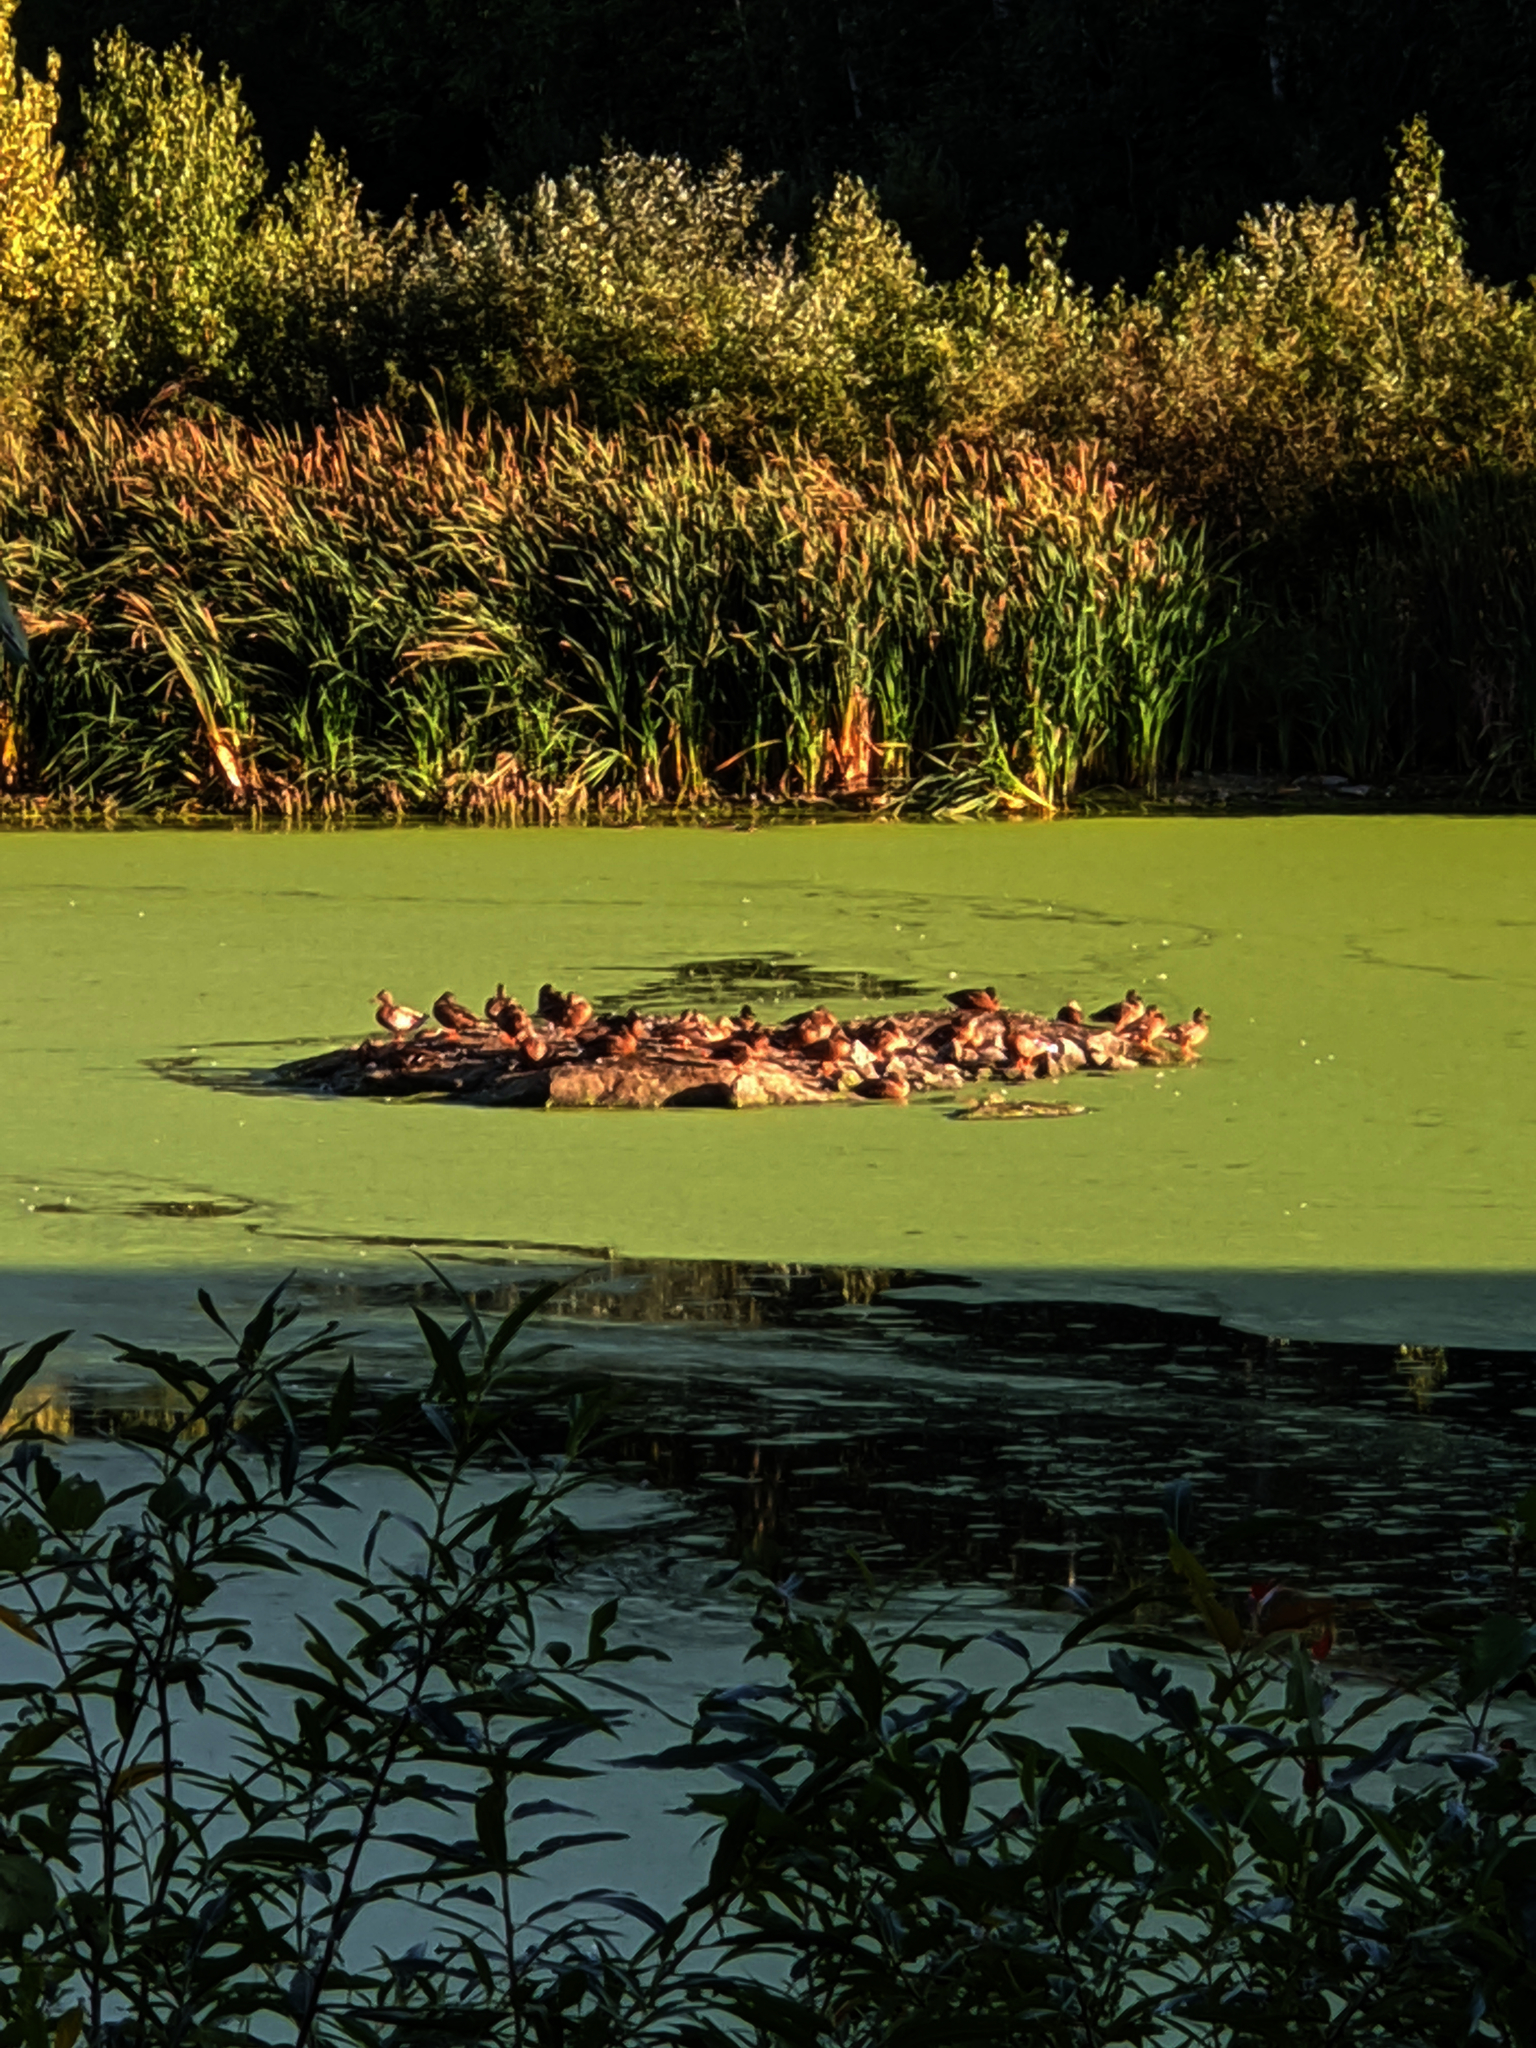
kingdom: Animalia
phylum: Chordata
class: Aves
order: Anseriformes
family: Anatidae
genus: Anas
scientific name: Anas platyrhynchos
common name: Mallard
